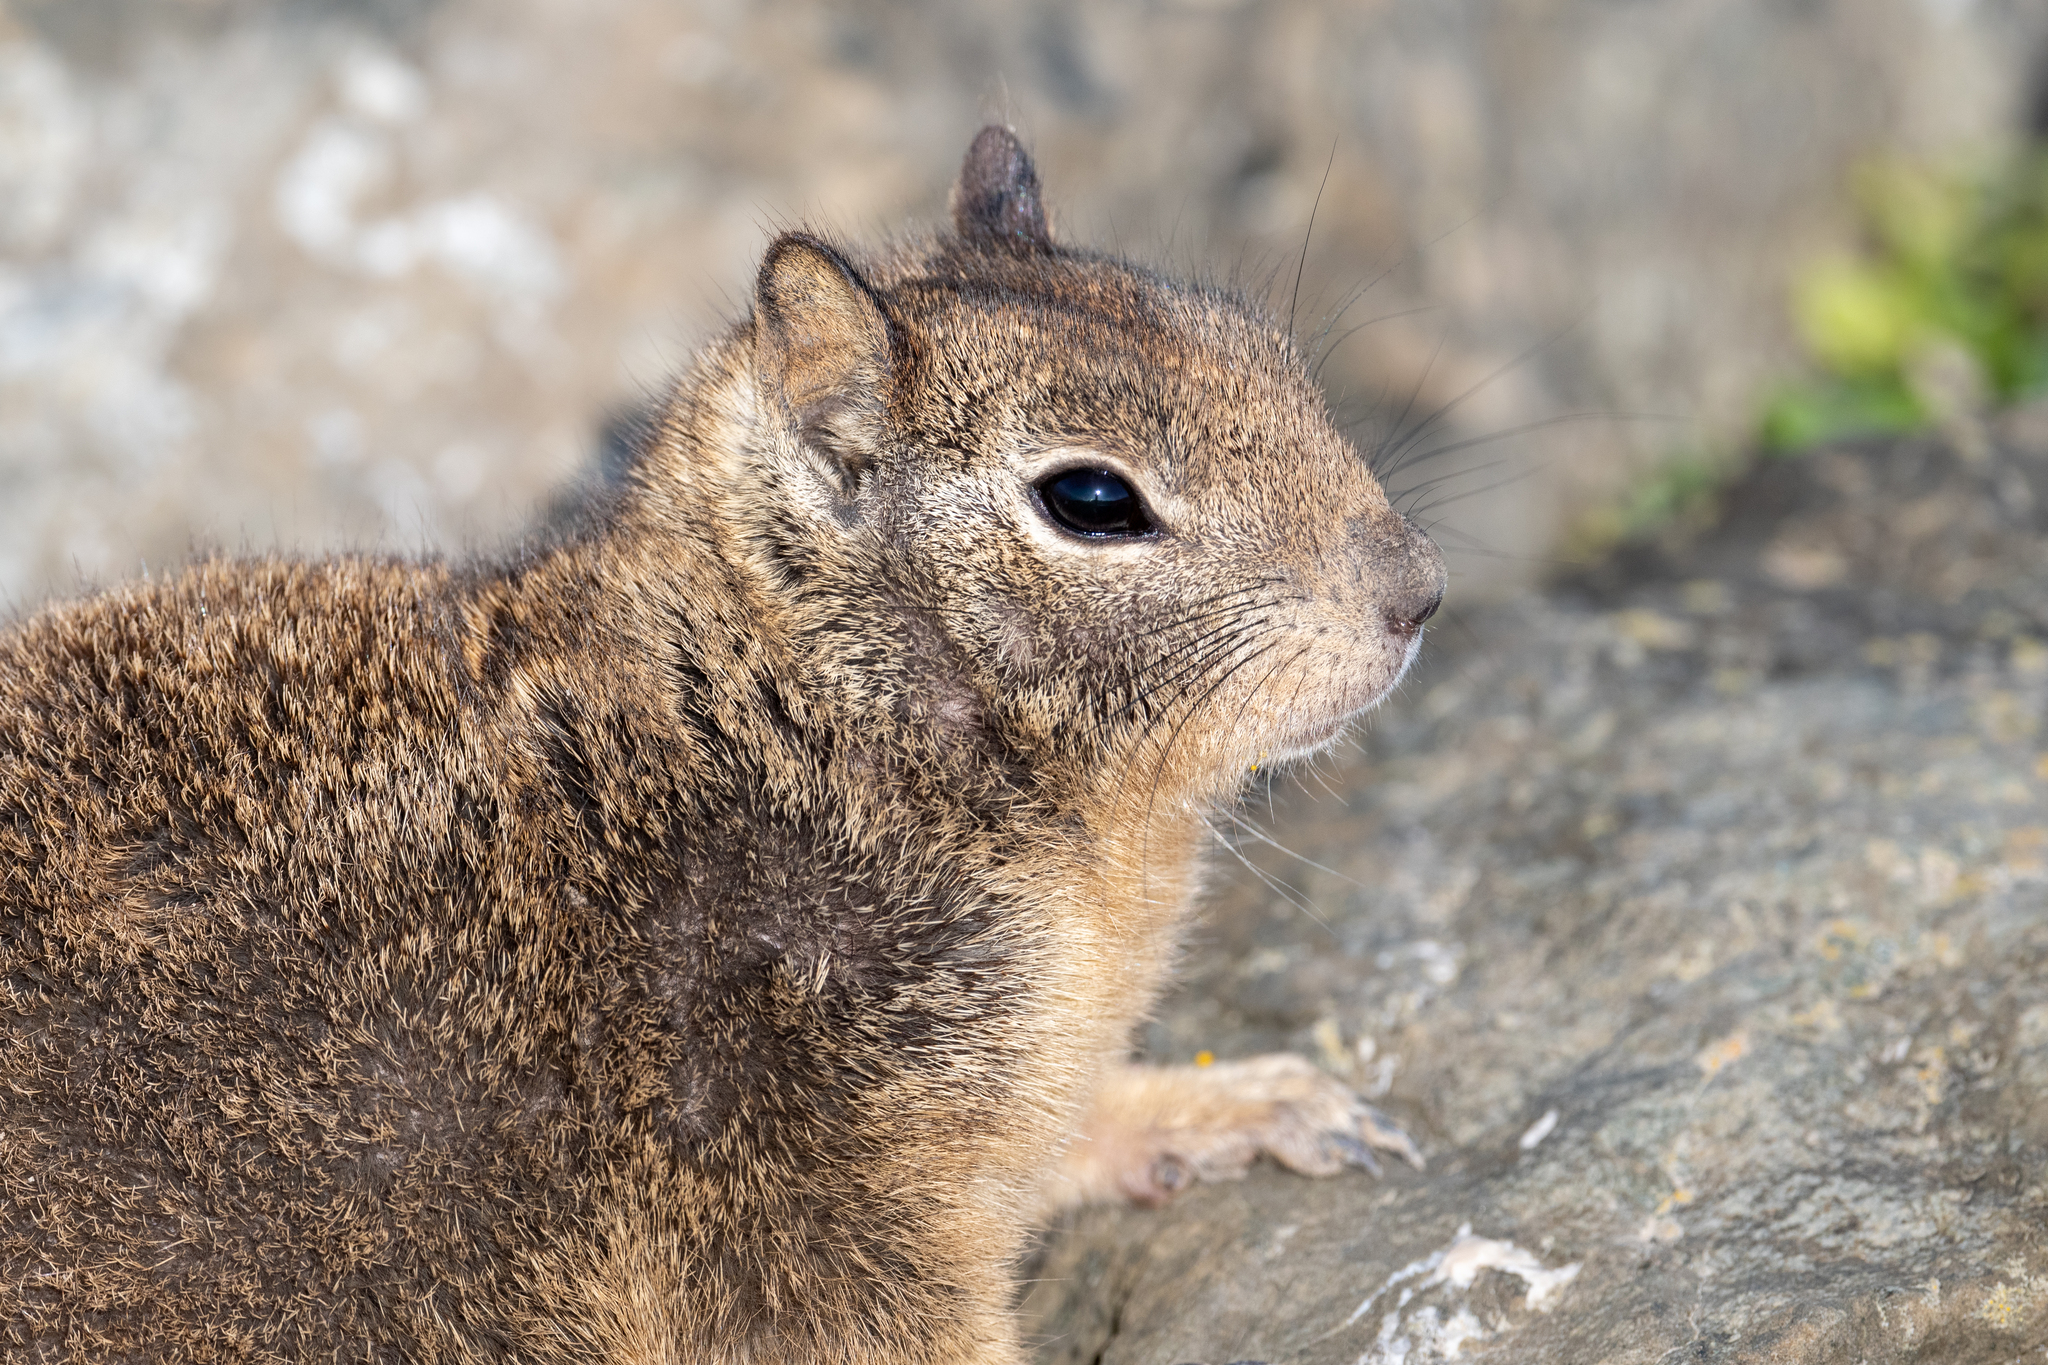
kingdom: Animalia
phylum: Chordata
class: Mammalia
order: Rodentia
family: Sciuridae
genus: Otospermophilus
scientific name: Otospermophilus beecheyi
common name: California ground squirrel
